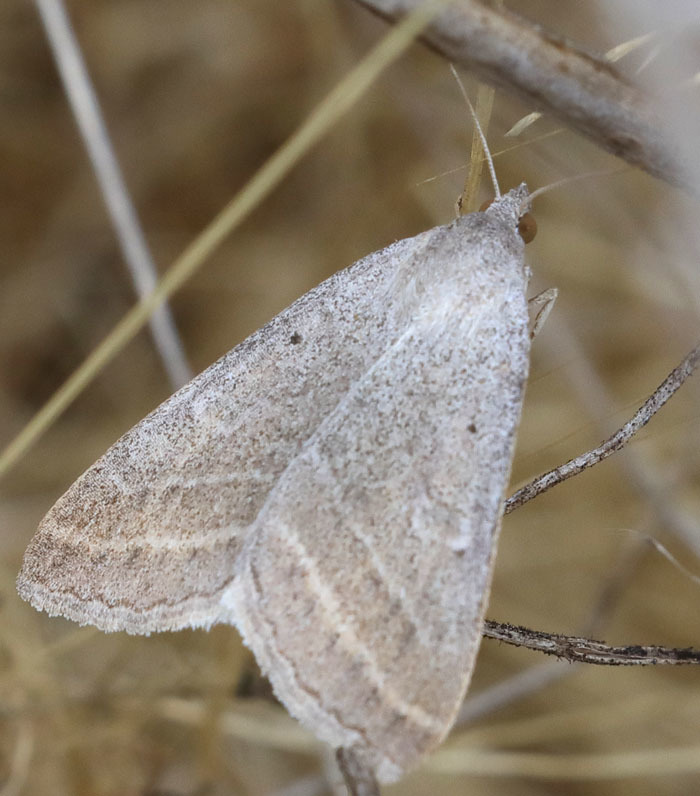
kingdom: Animalia
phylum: Arthropoda
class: Insecta
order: Lepidoptera
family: Erebidae
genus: Caenurgia
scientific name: Caenurgia togataria
